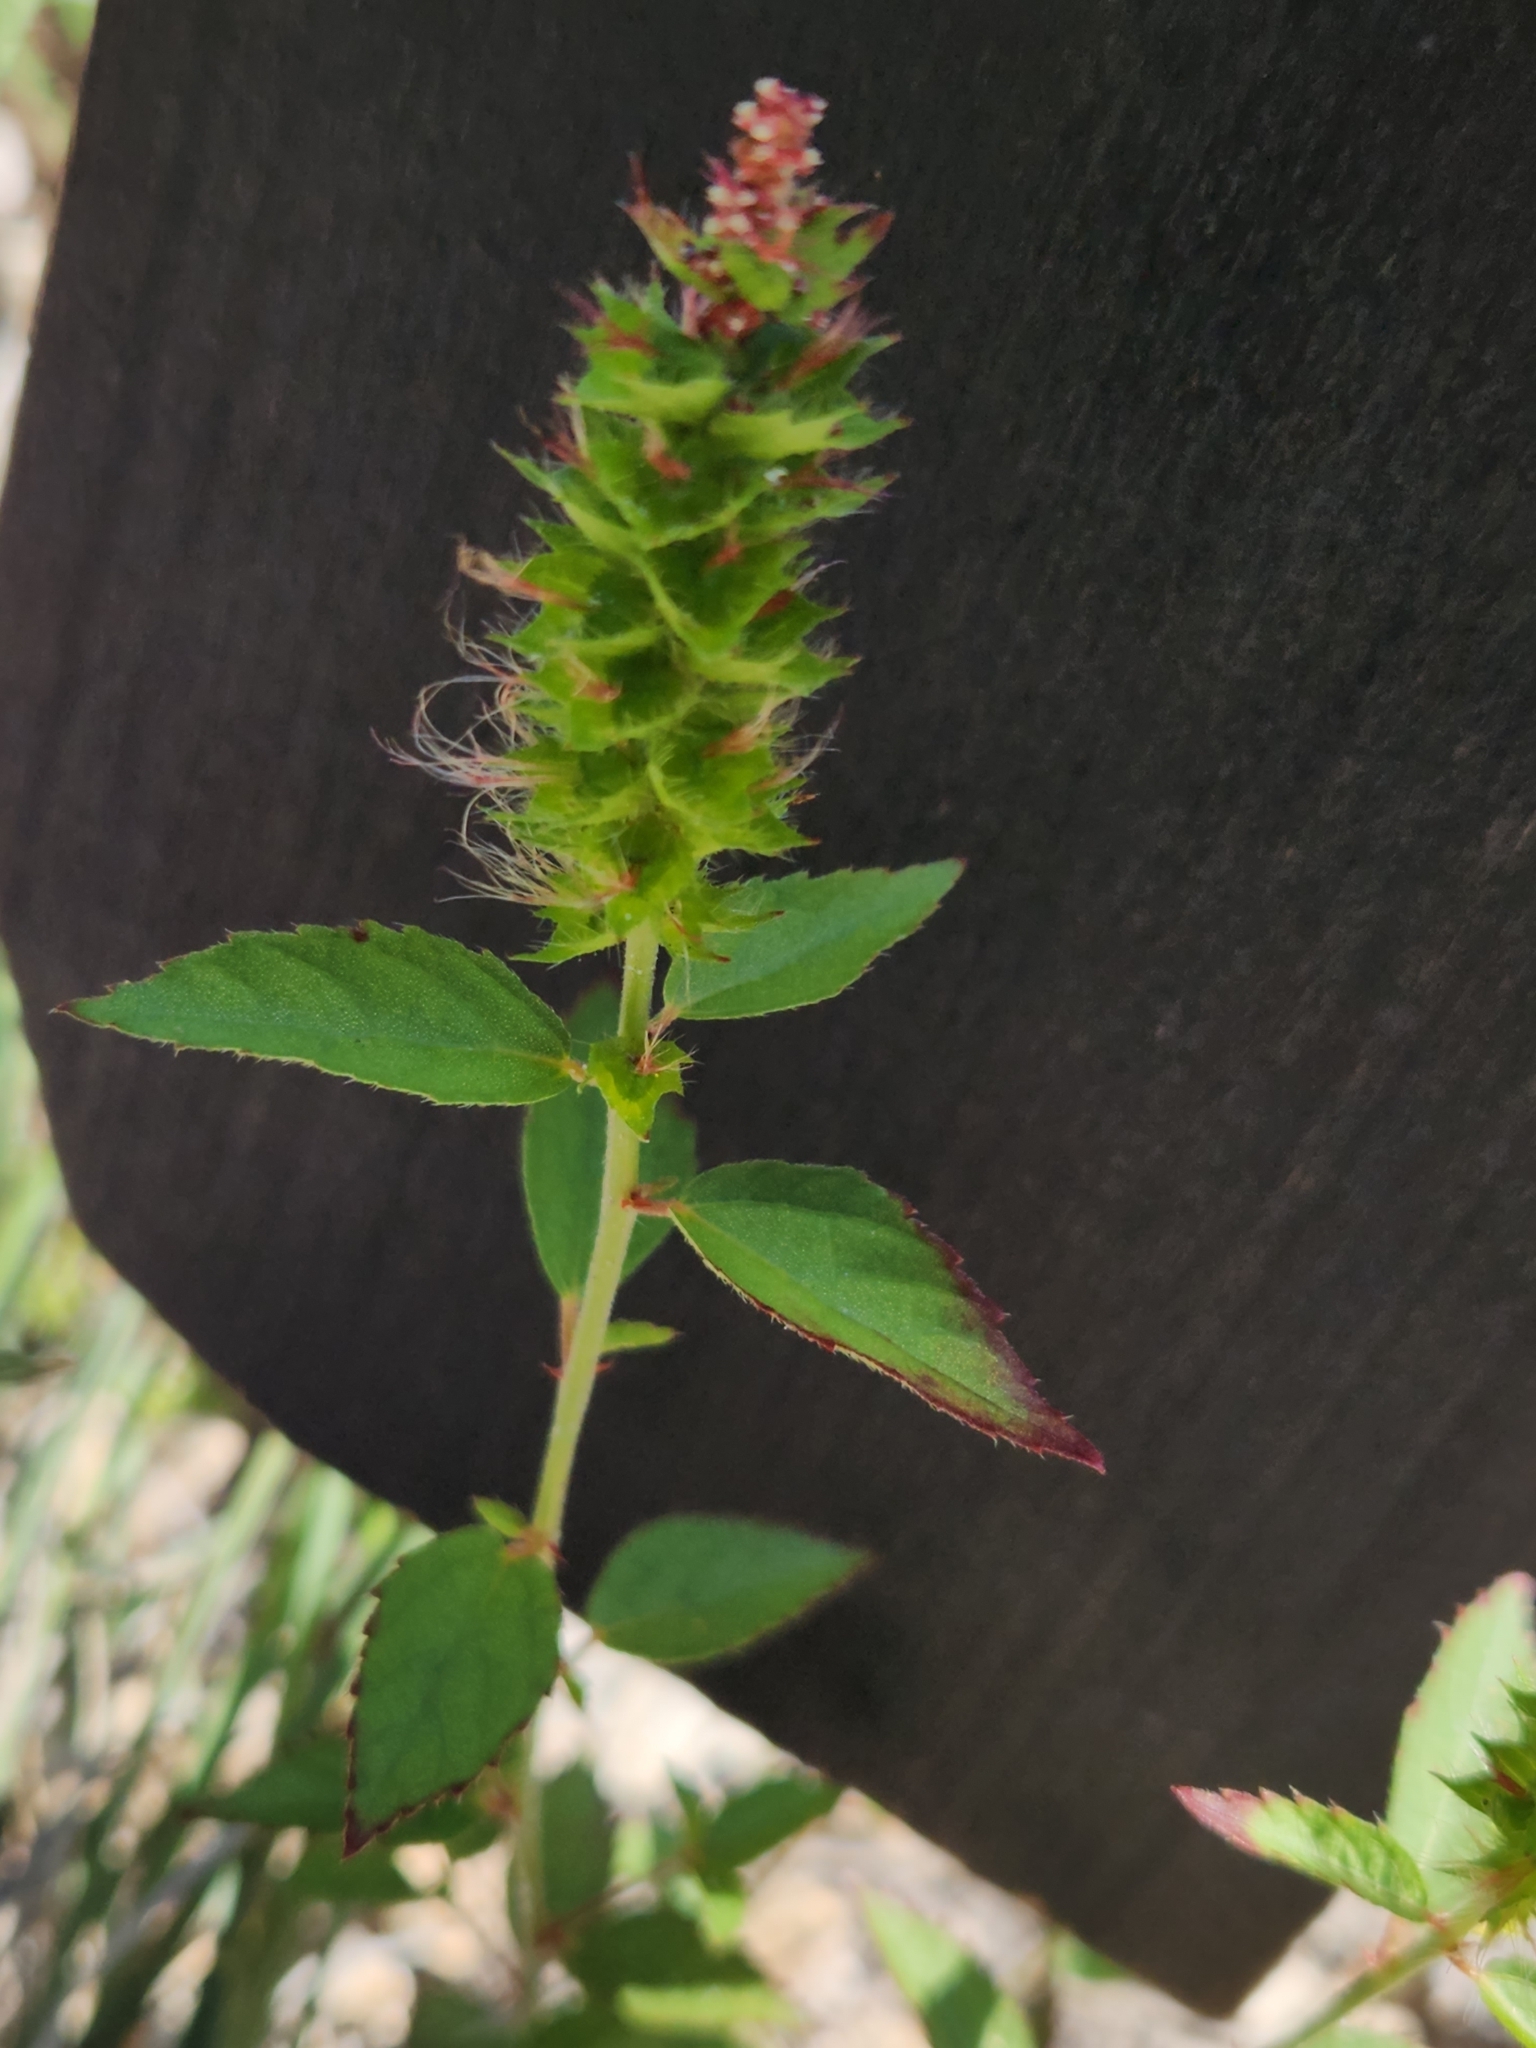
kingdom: Plantae
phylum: Tracheophyta
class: Magnoliopsida
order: Malpighiales
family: Euphorbiaceae
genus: Acalypha
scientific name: Acalypha phleoides
